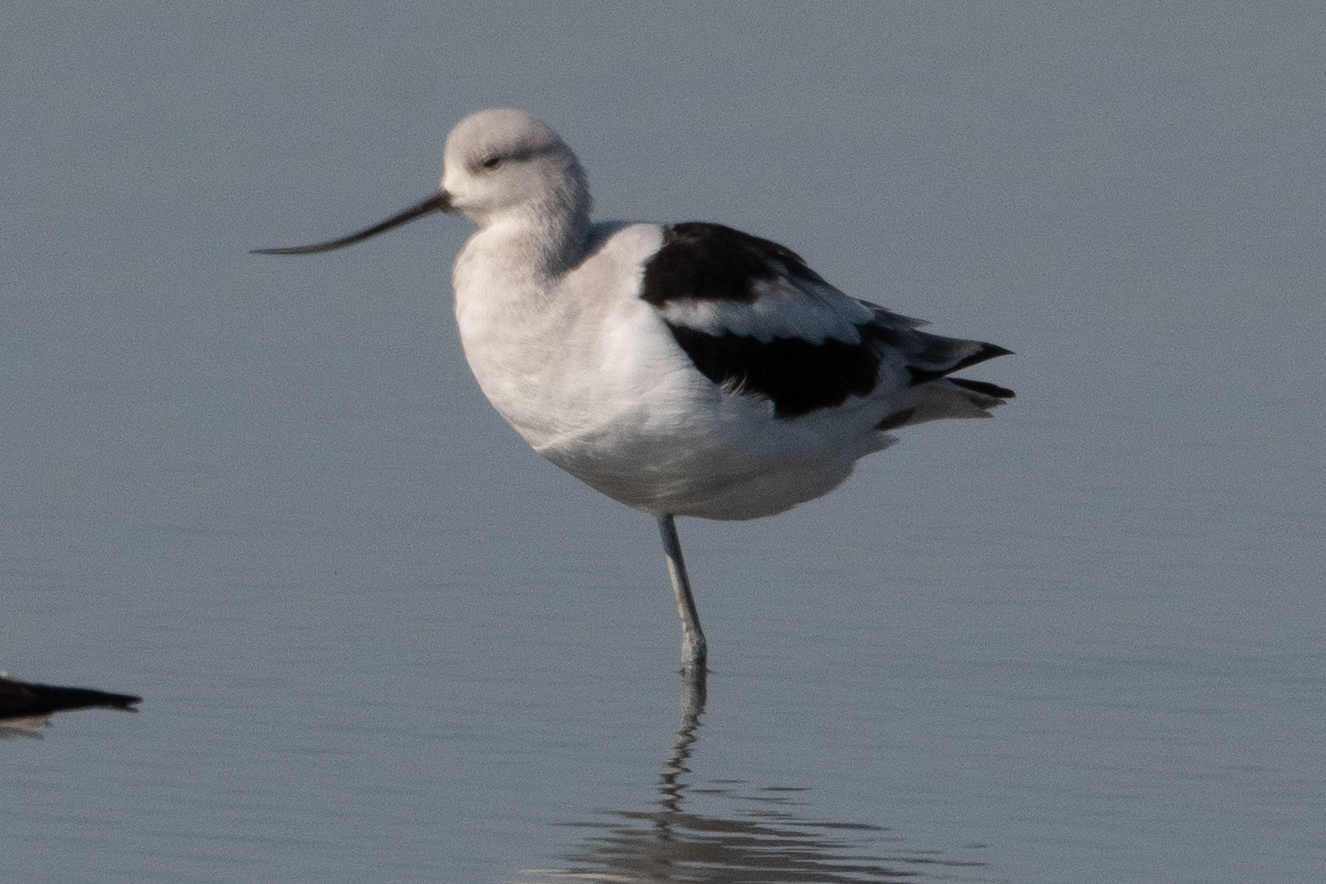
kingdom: Animalia
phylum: Chordata
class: Aves
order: Charadriiformes
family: Recurvirostridae
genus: Recurvirostra
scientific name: Recurvirostra americana
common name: American avocet
